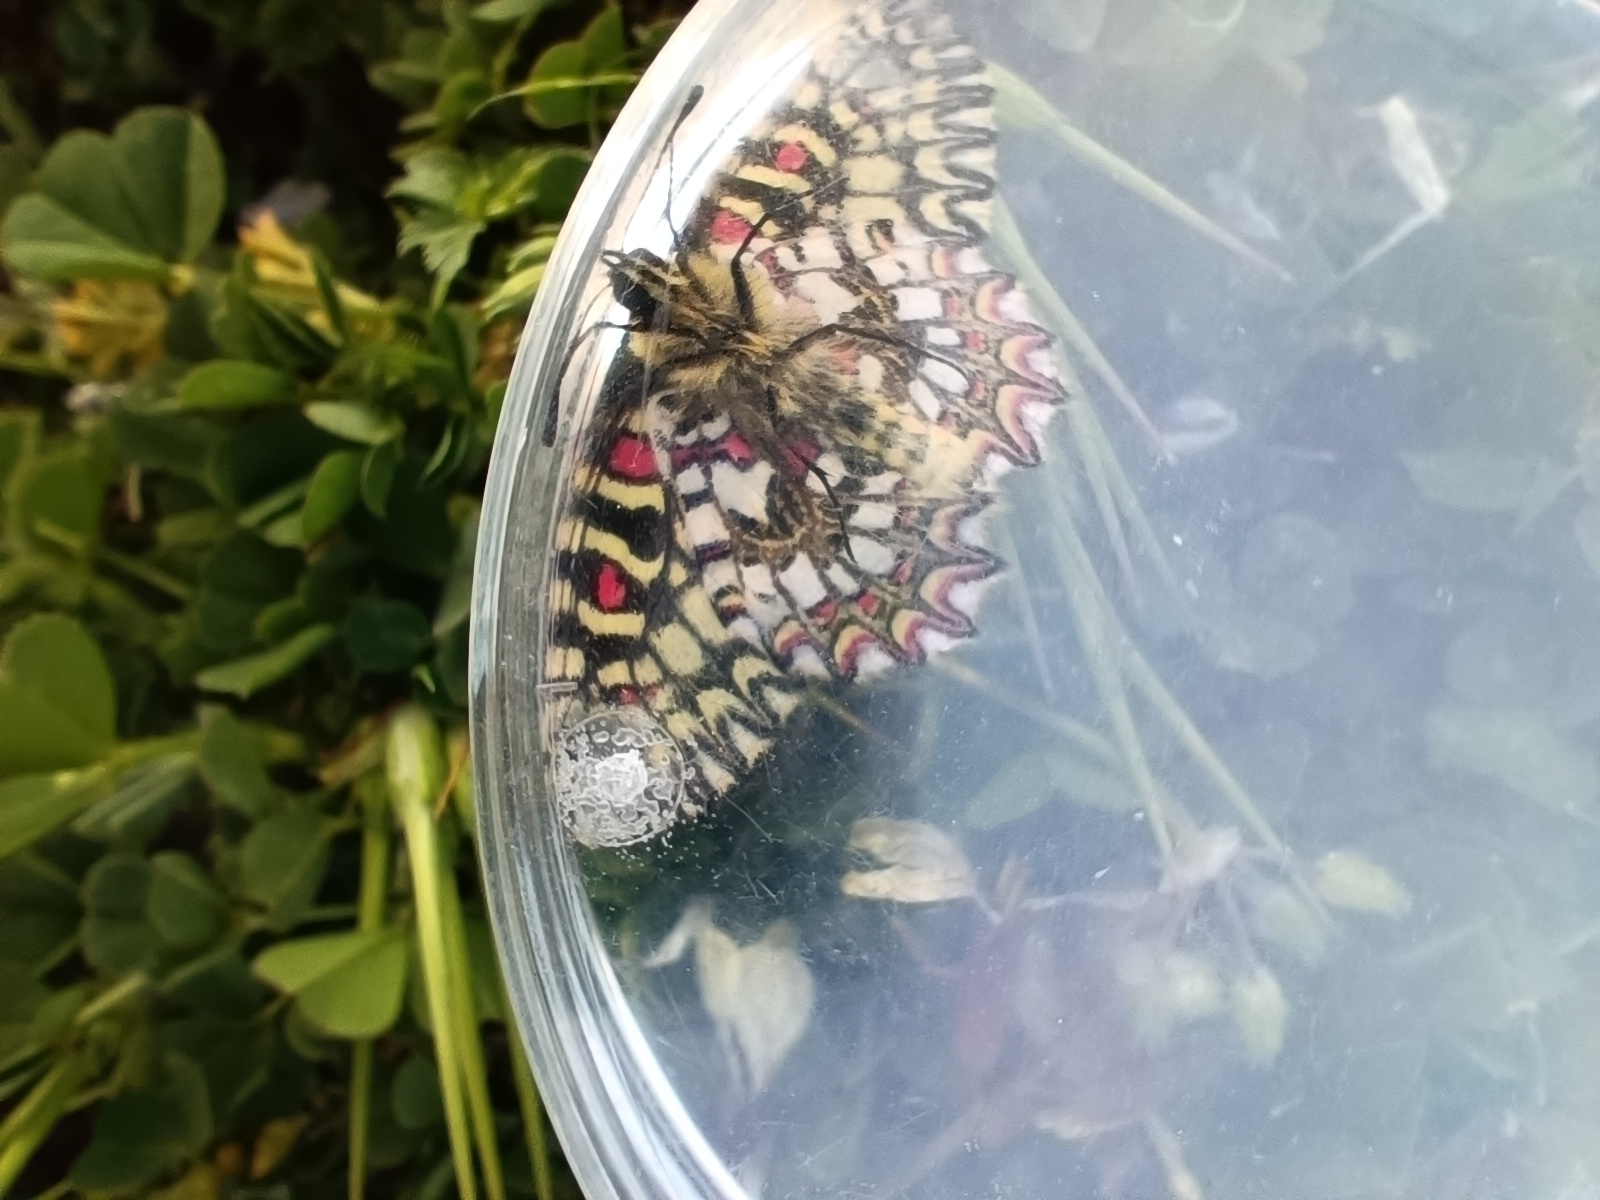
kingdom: Animalia
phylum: Arthropoda
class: Insecta
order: Lepidoptera
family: Papilionidae
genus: Zerynthia
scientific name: Zerynthia rumina
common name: Spanish festoon
